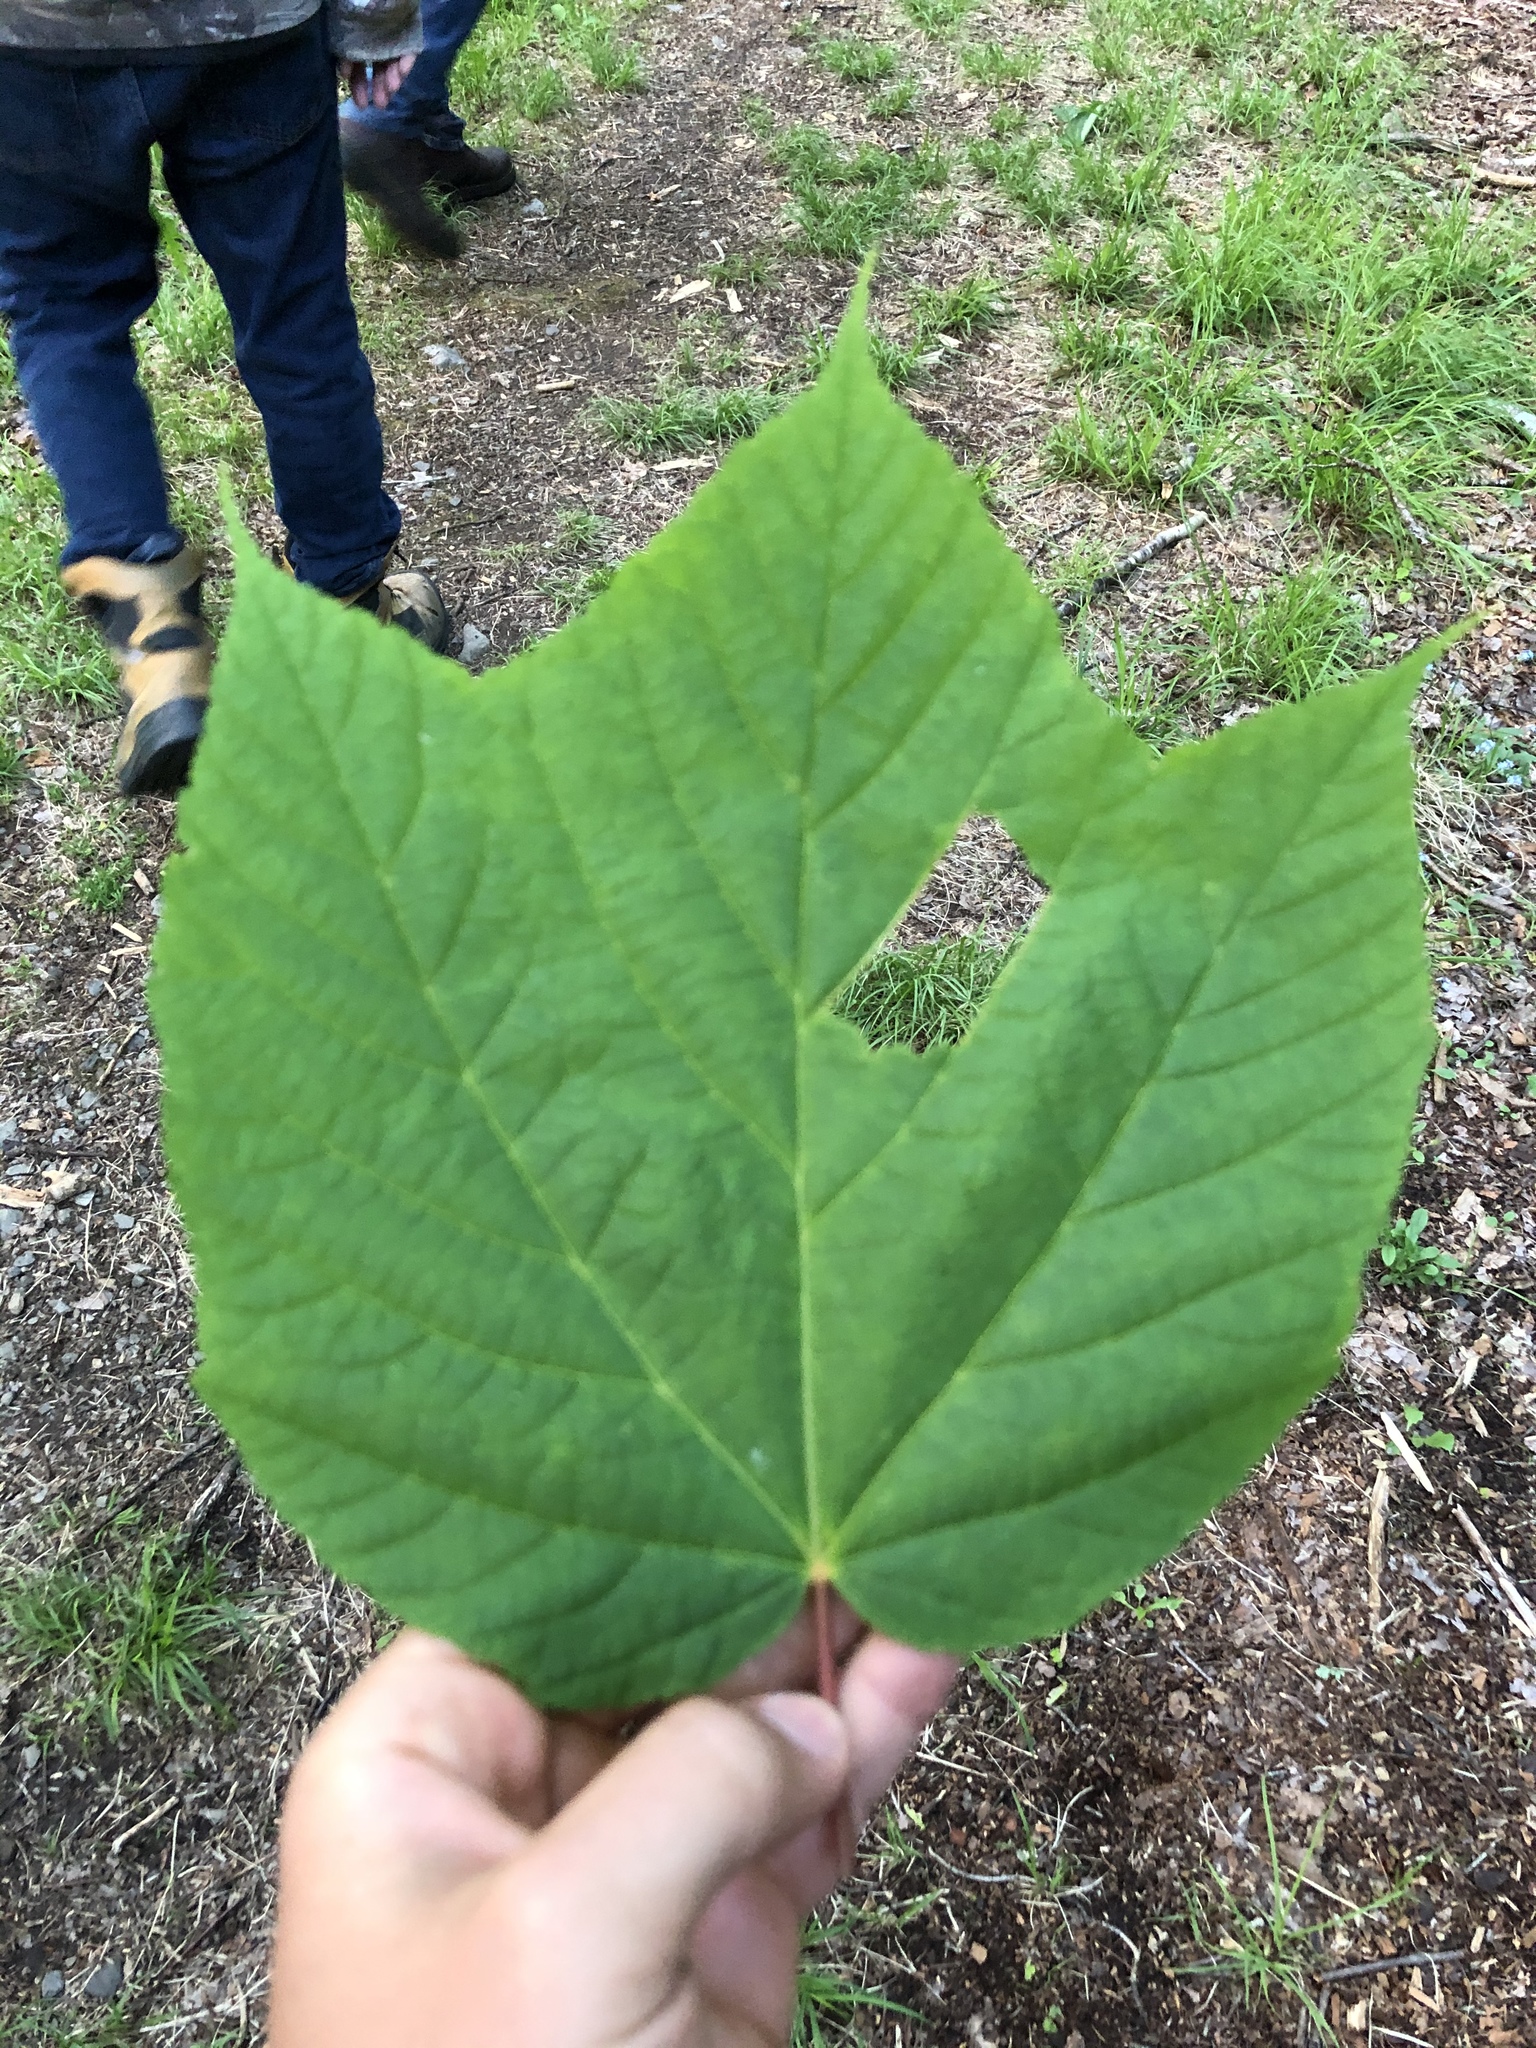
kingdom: Plantae
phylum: Tracheophyta
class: Magnoliopsida
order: Sapindales
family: Sapindaceae
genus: Acer
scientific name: Acer pensylvanicum
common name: Moosewood
